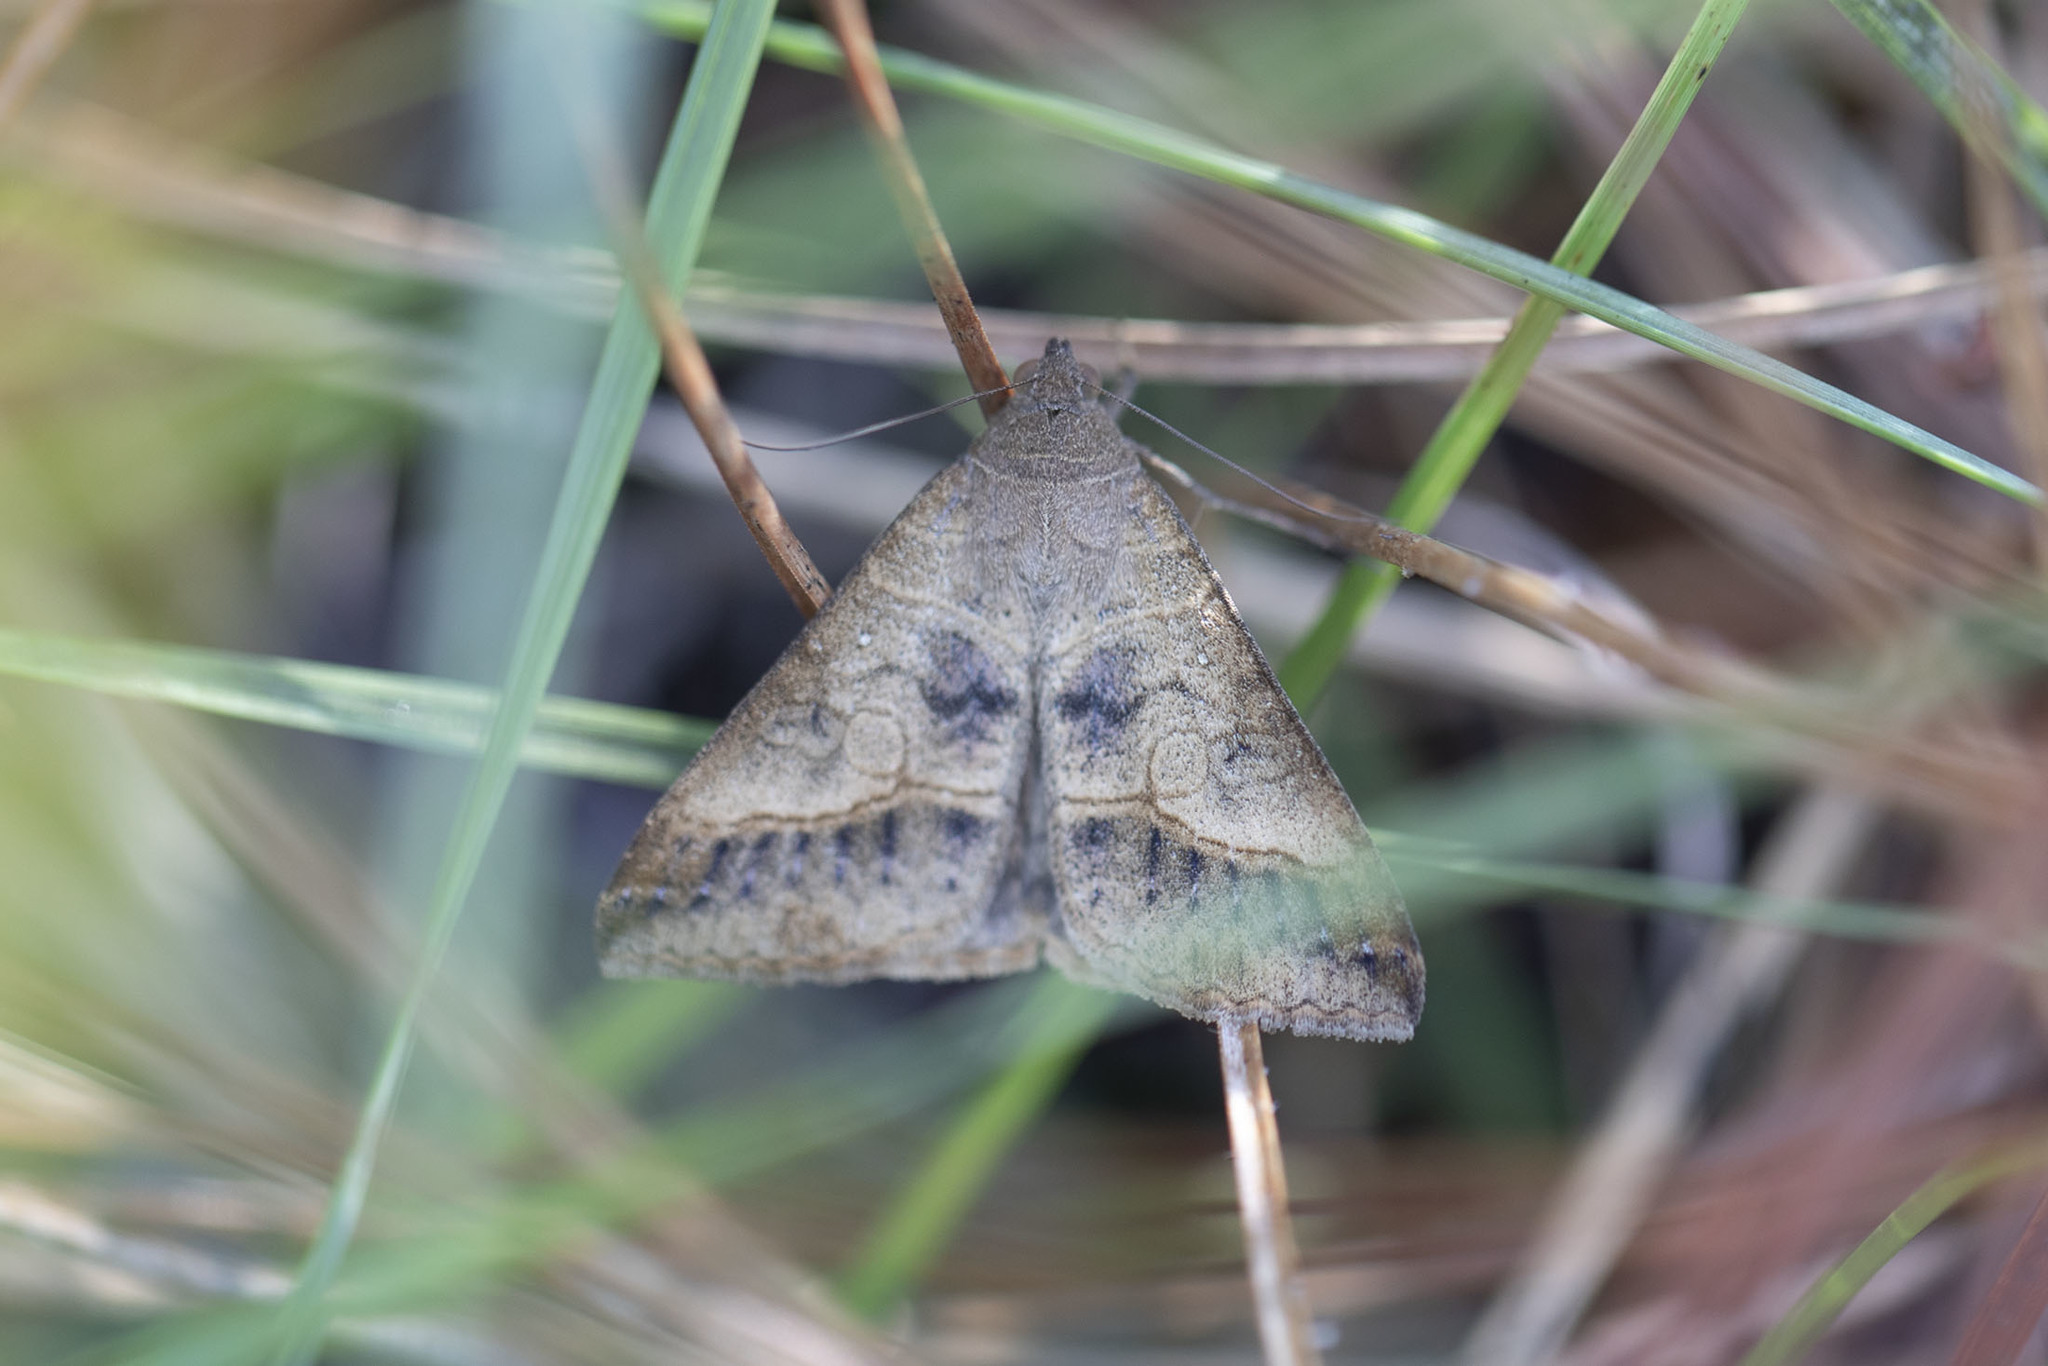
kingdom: Animalia
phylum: Arthropoda
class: Insecta
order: Lepidoptera
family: Erebidae
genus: Mocis
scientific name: Mocis latipes
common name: Striped grass looper
